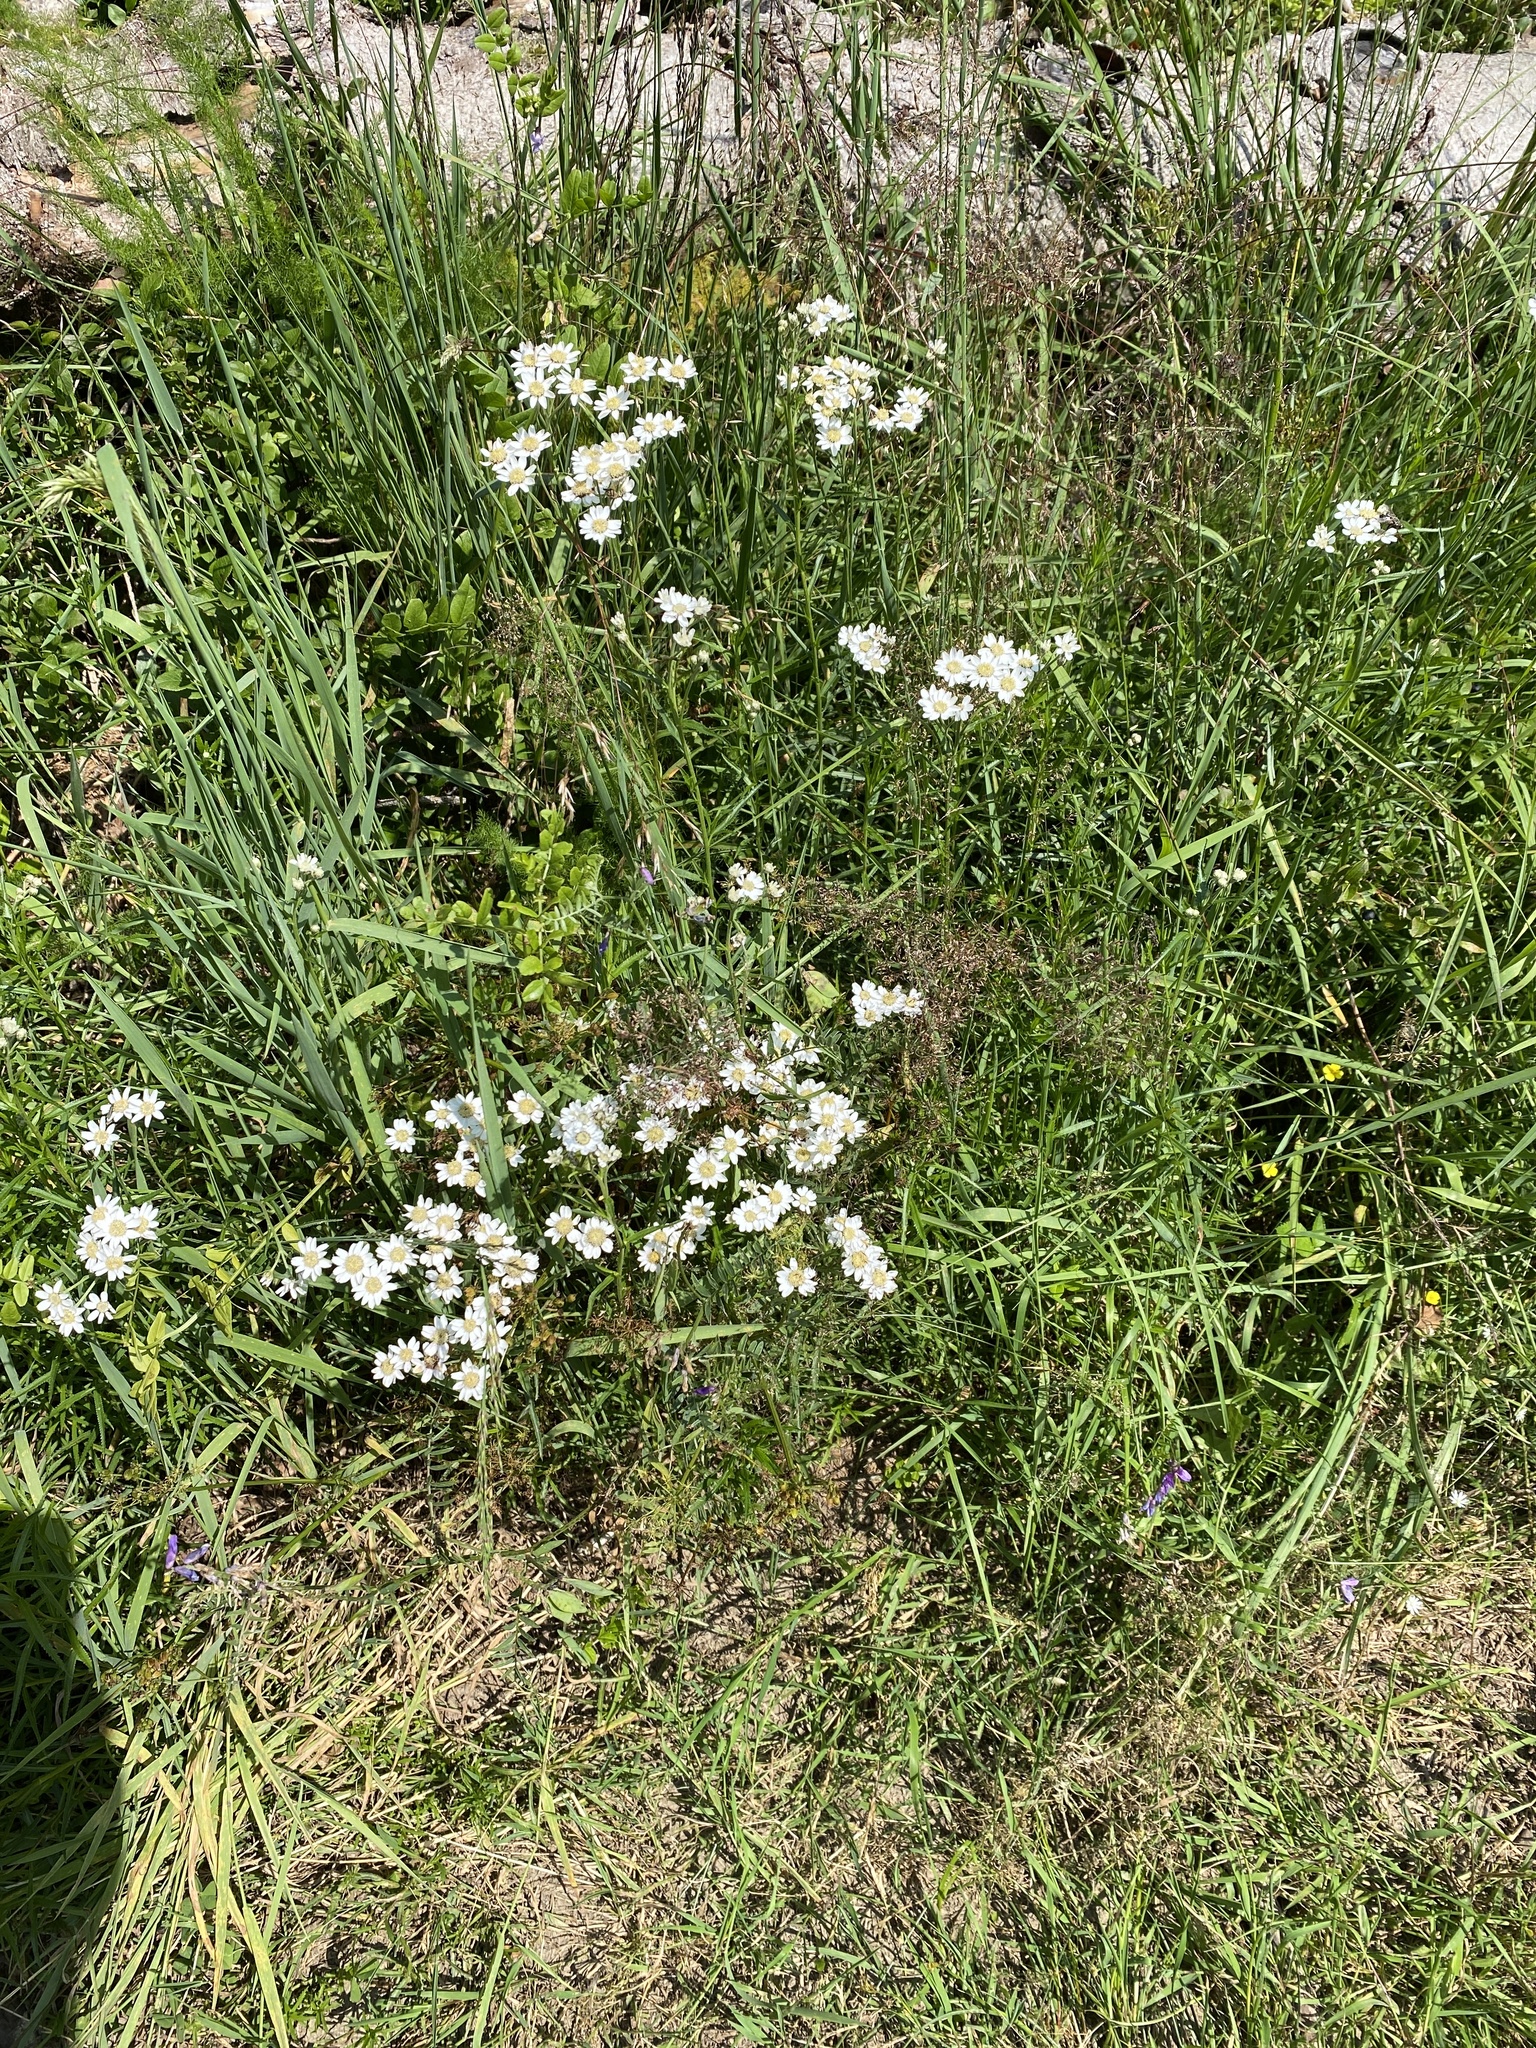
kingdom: Plantae
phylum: Tracheophyta
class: Magnoliopsida
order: Asterales
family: Asteraceae
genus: Achillea
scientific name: Achillea ptarmica
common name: Sneezeweed
